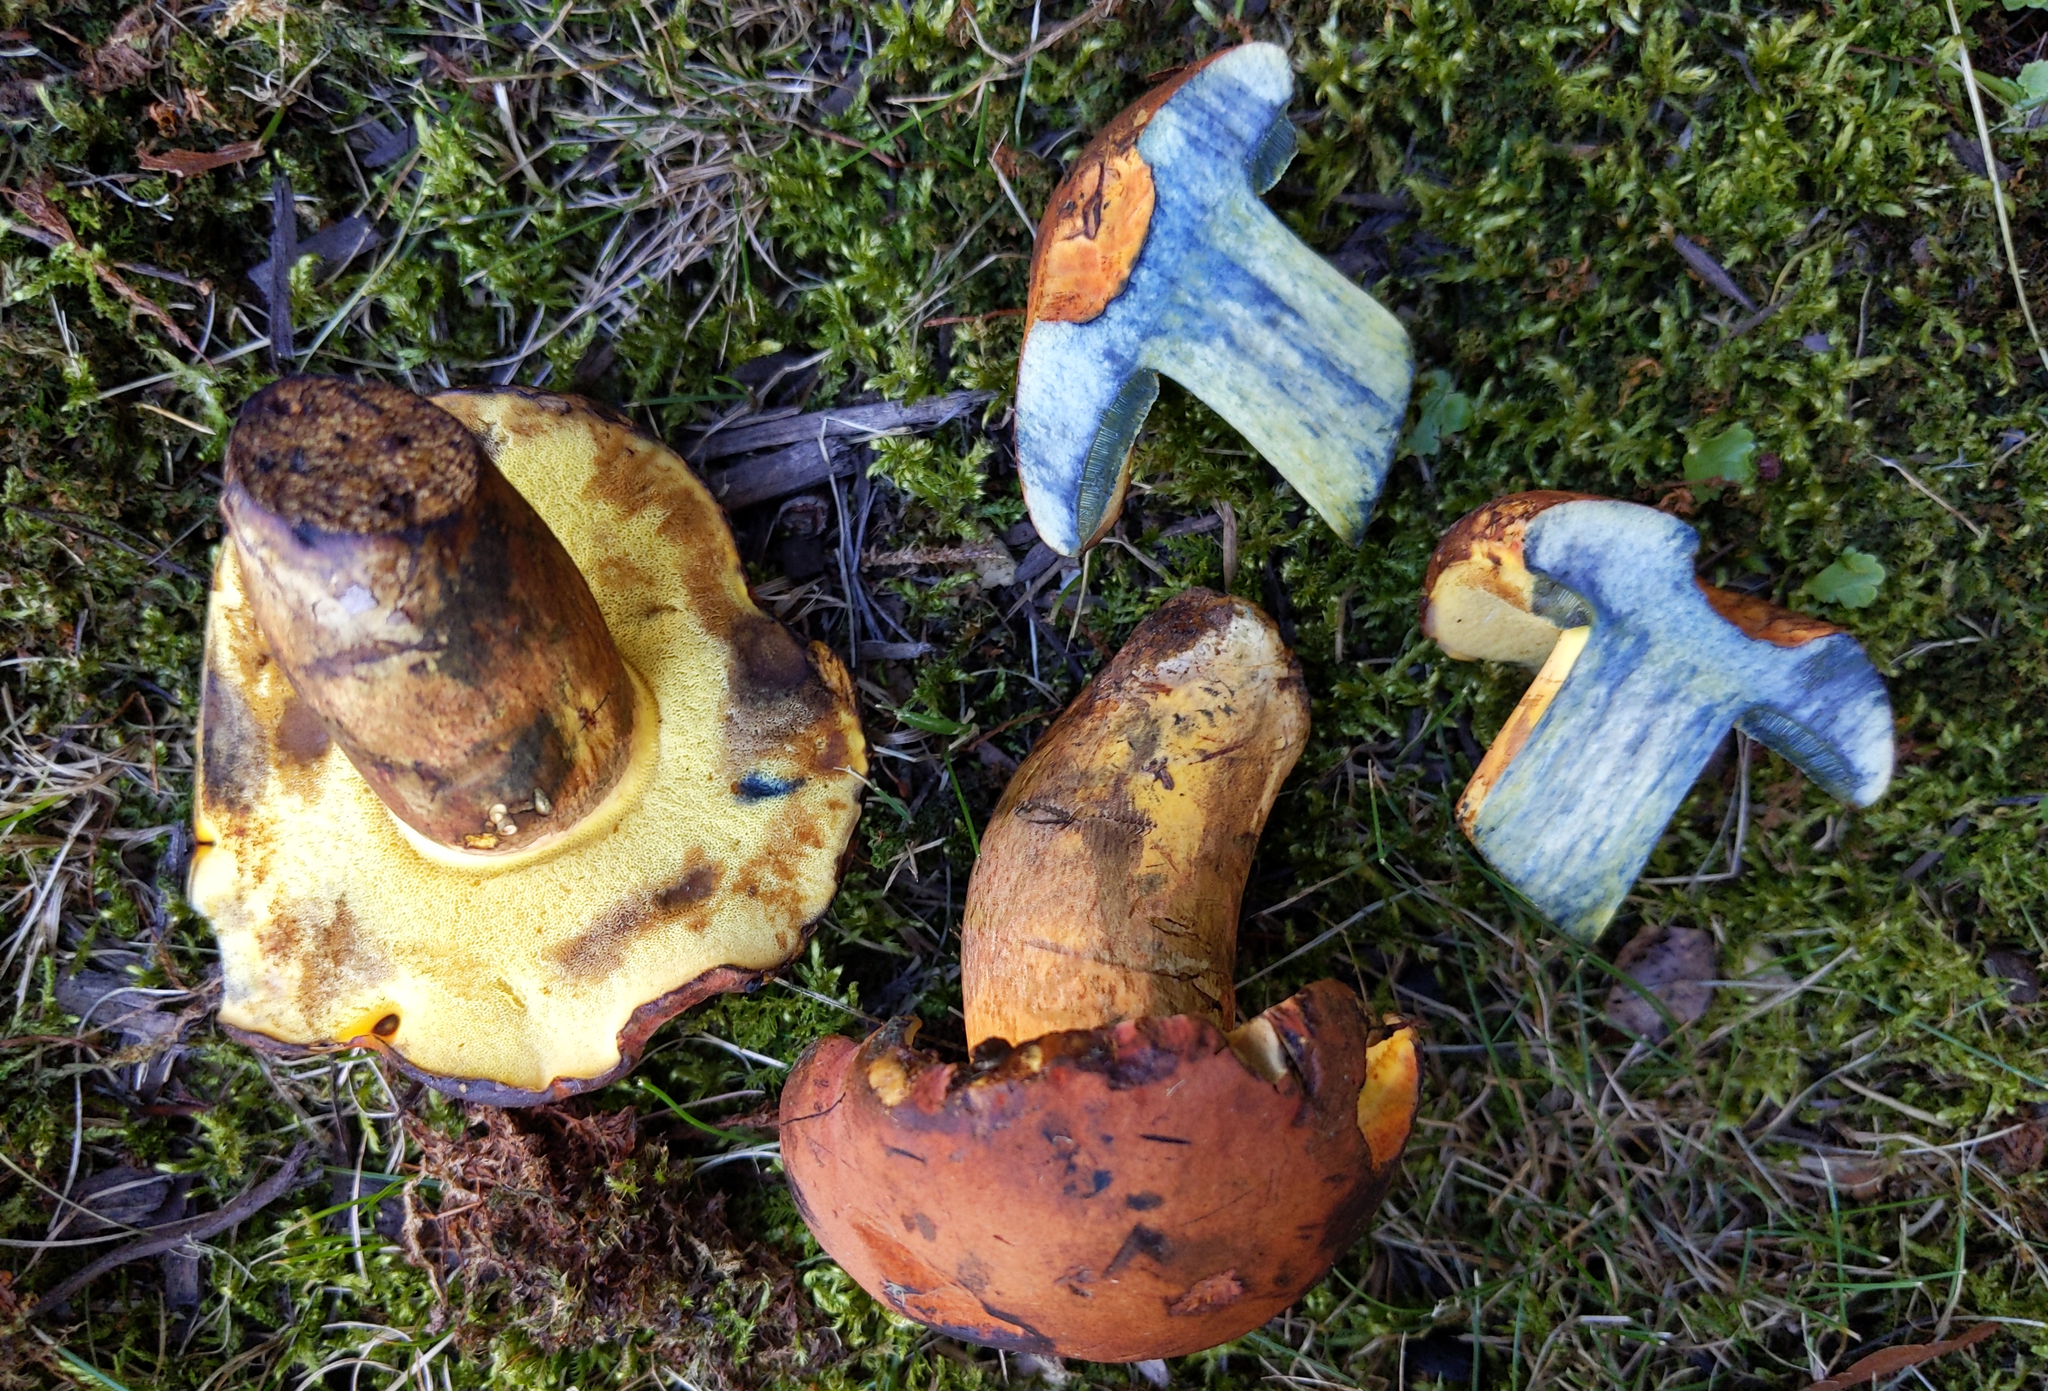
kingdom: Fungi
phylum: Basidiomycota
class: Agaricomycetes
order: Boletales
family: Boletaceae
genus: Lanmaoa
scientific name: Lanmaoa pseudosensibilis
